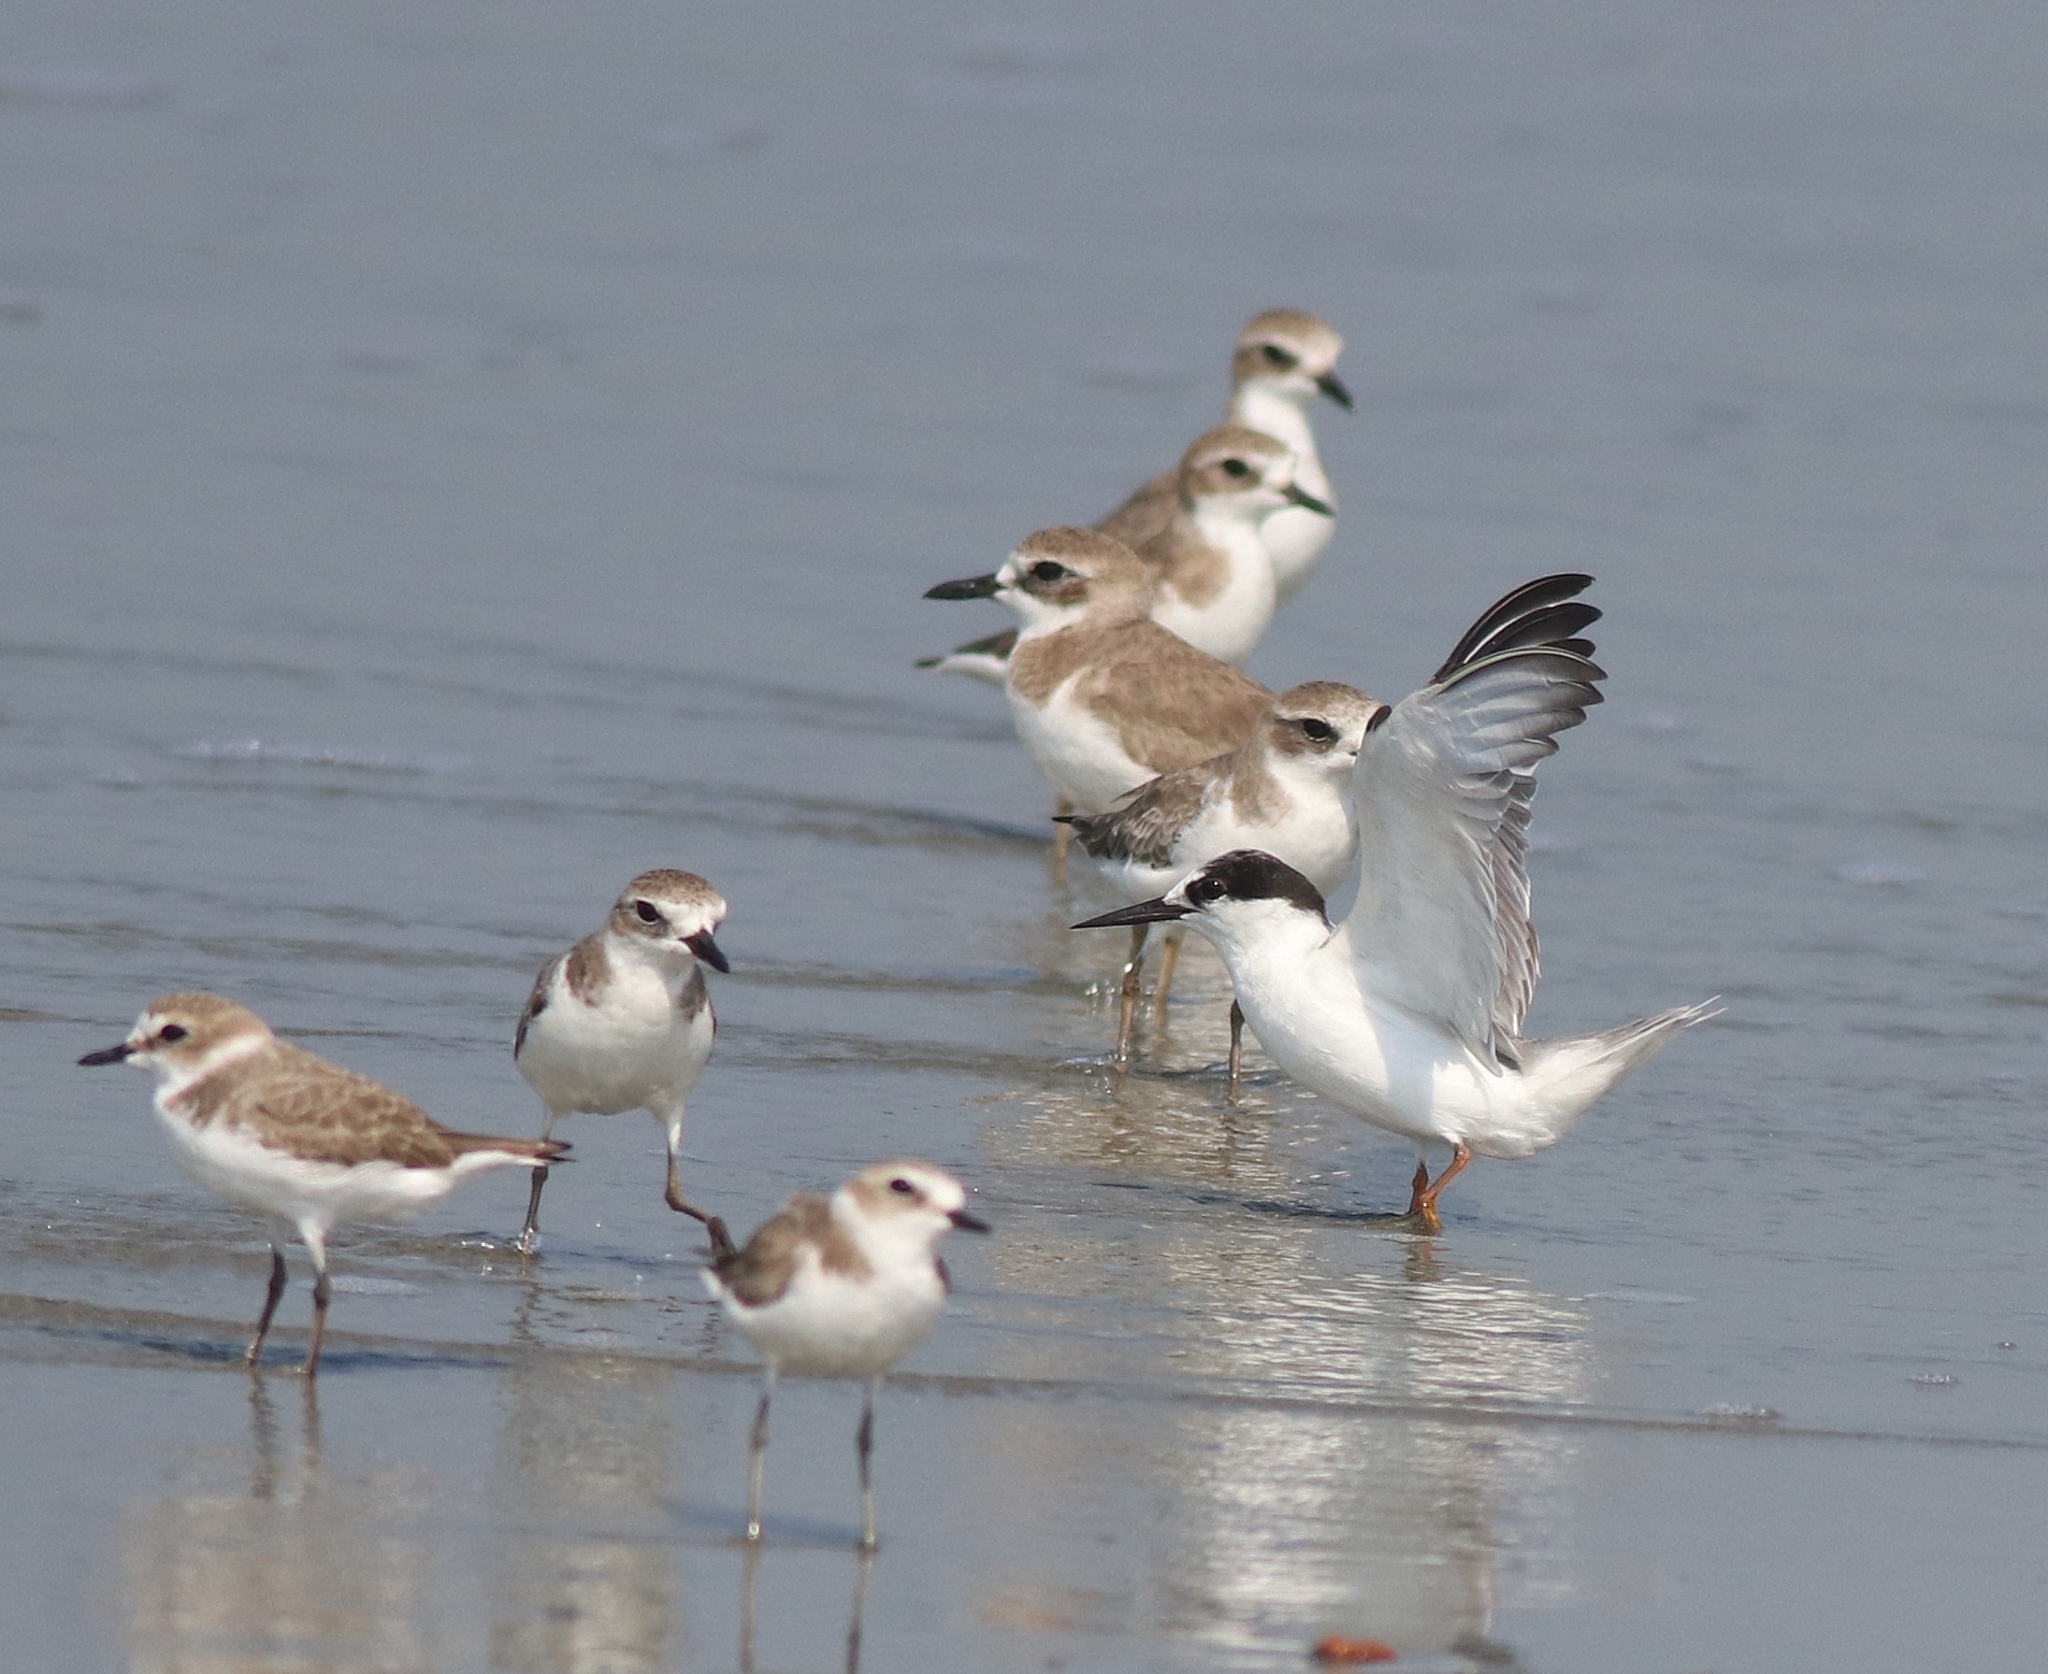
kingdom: Animalia
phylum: Chordata
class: Aves
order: Charadriiformes
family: Charadriidae
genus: Anarhynchus
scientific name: Anarhynchus
